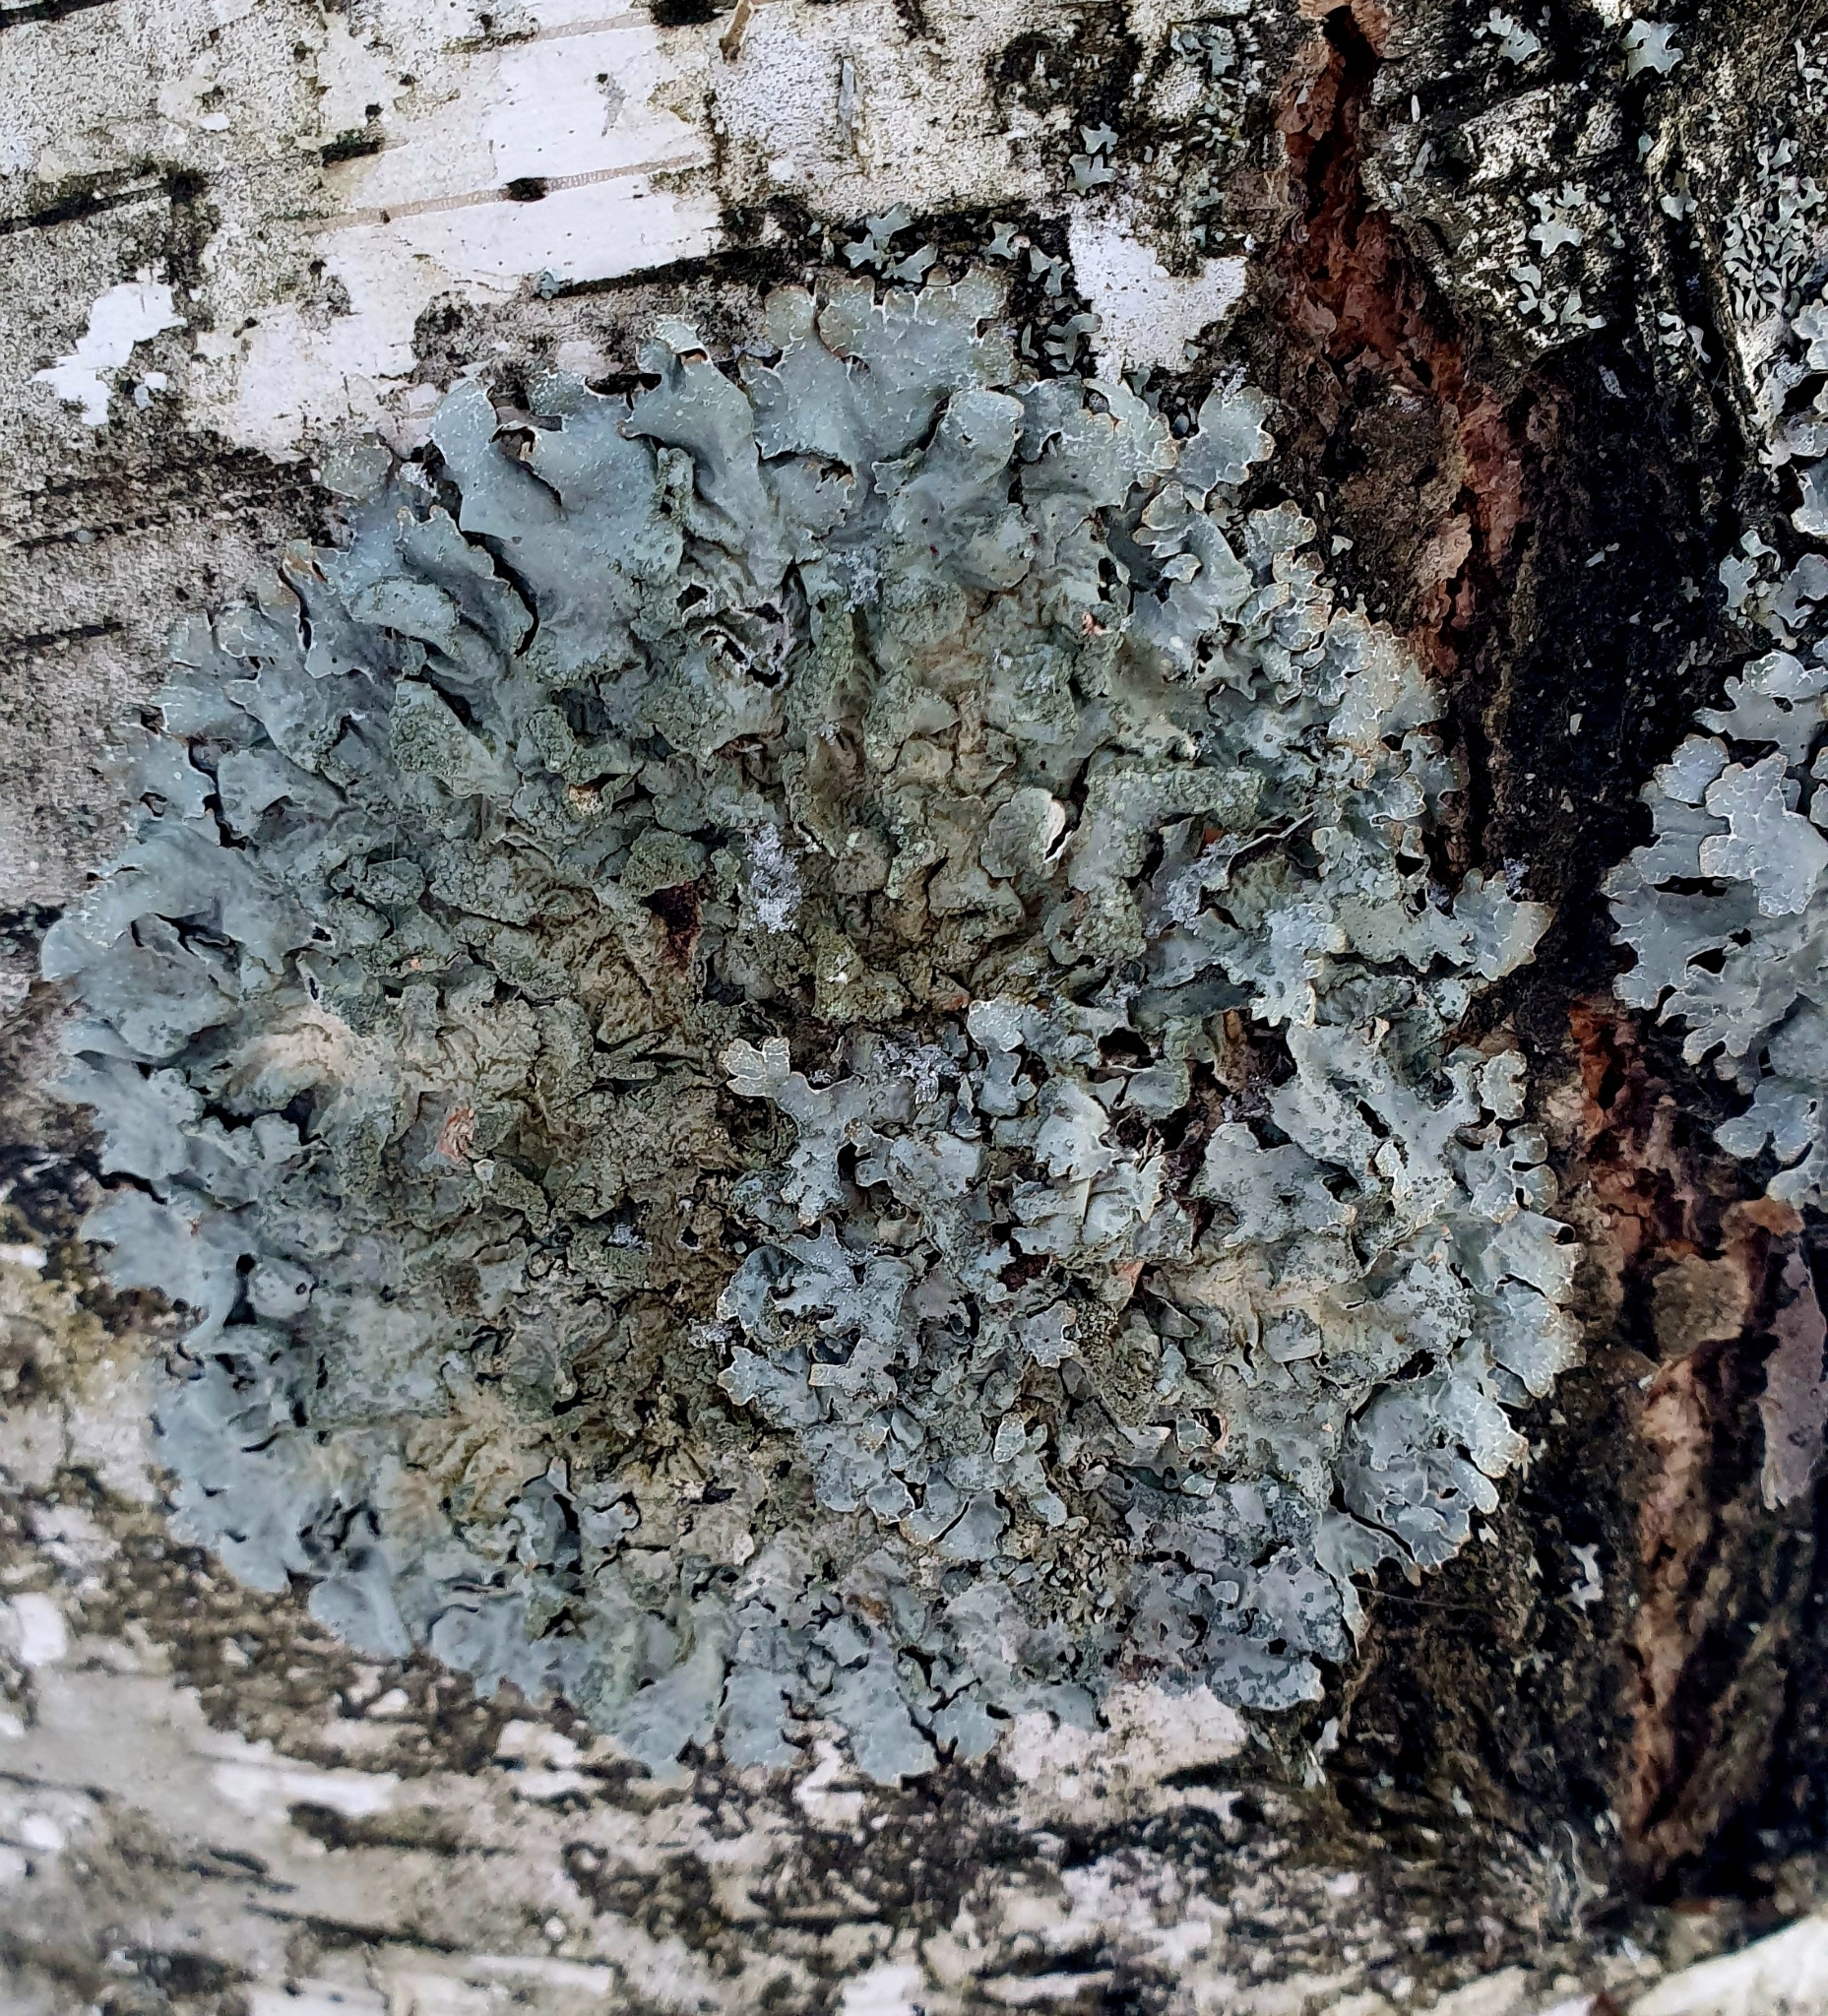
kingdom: Fungi
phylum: Ascomycota
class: Lecanoromycetes
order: Lecanorales
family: Parmeliaceae
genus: Parmelia
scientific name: Parmelia sulcata
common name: Netted shield lichen
